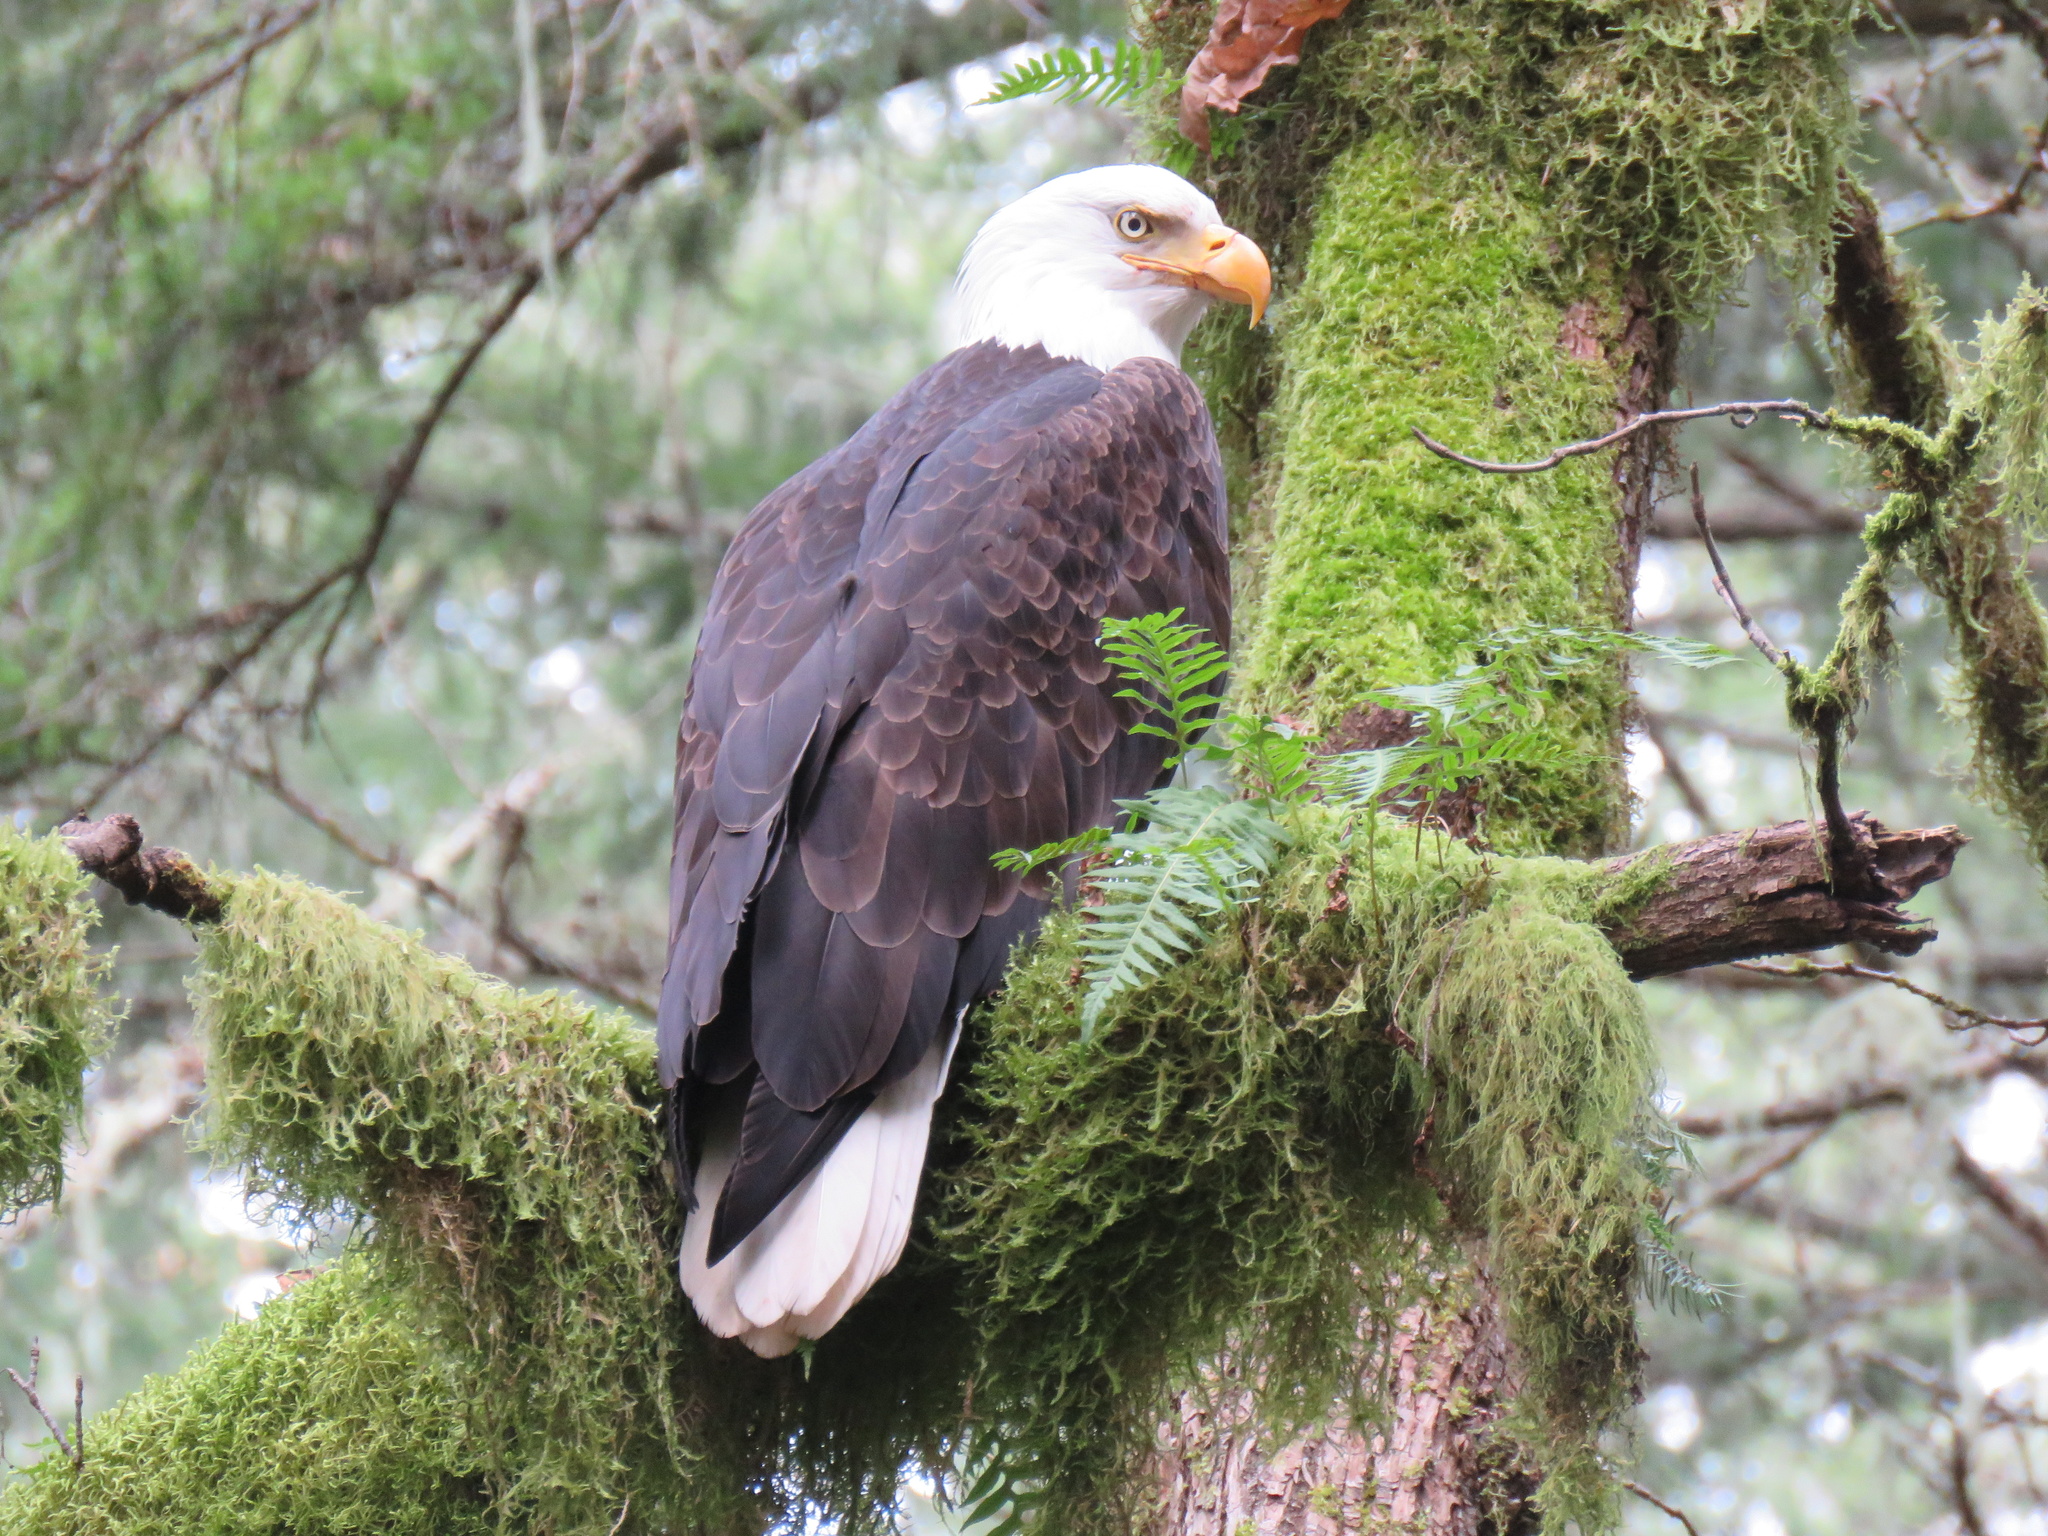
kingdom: Animalia
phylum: Chordata
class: Aves
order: Accipitriformes
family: Accipitridae
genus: Haliaeetus
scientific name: Haliaeetus leucocephalus
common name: Bald eagle
